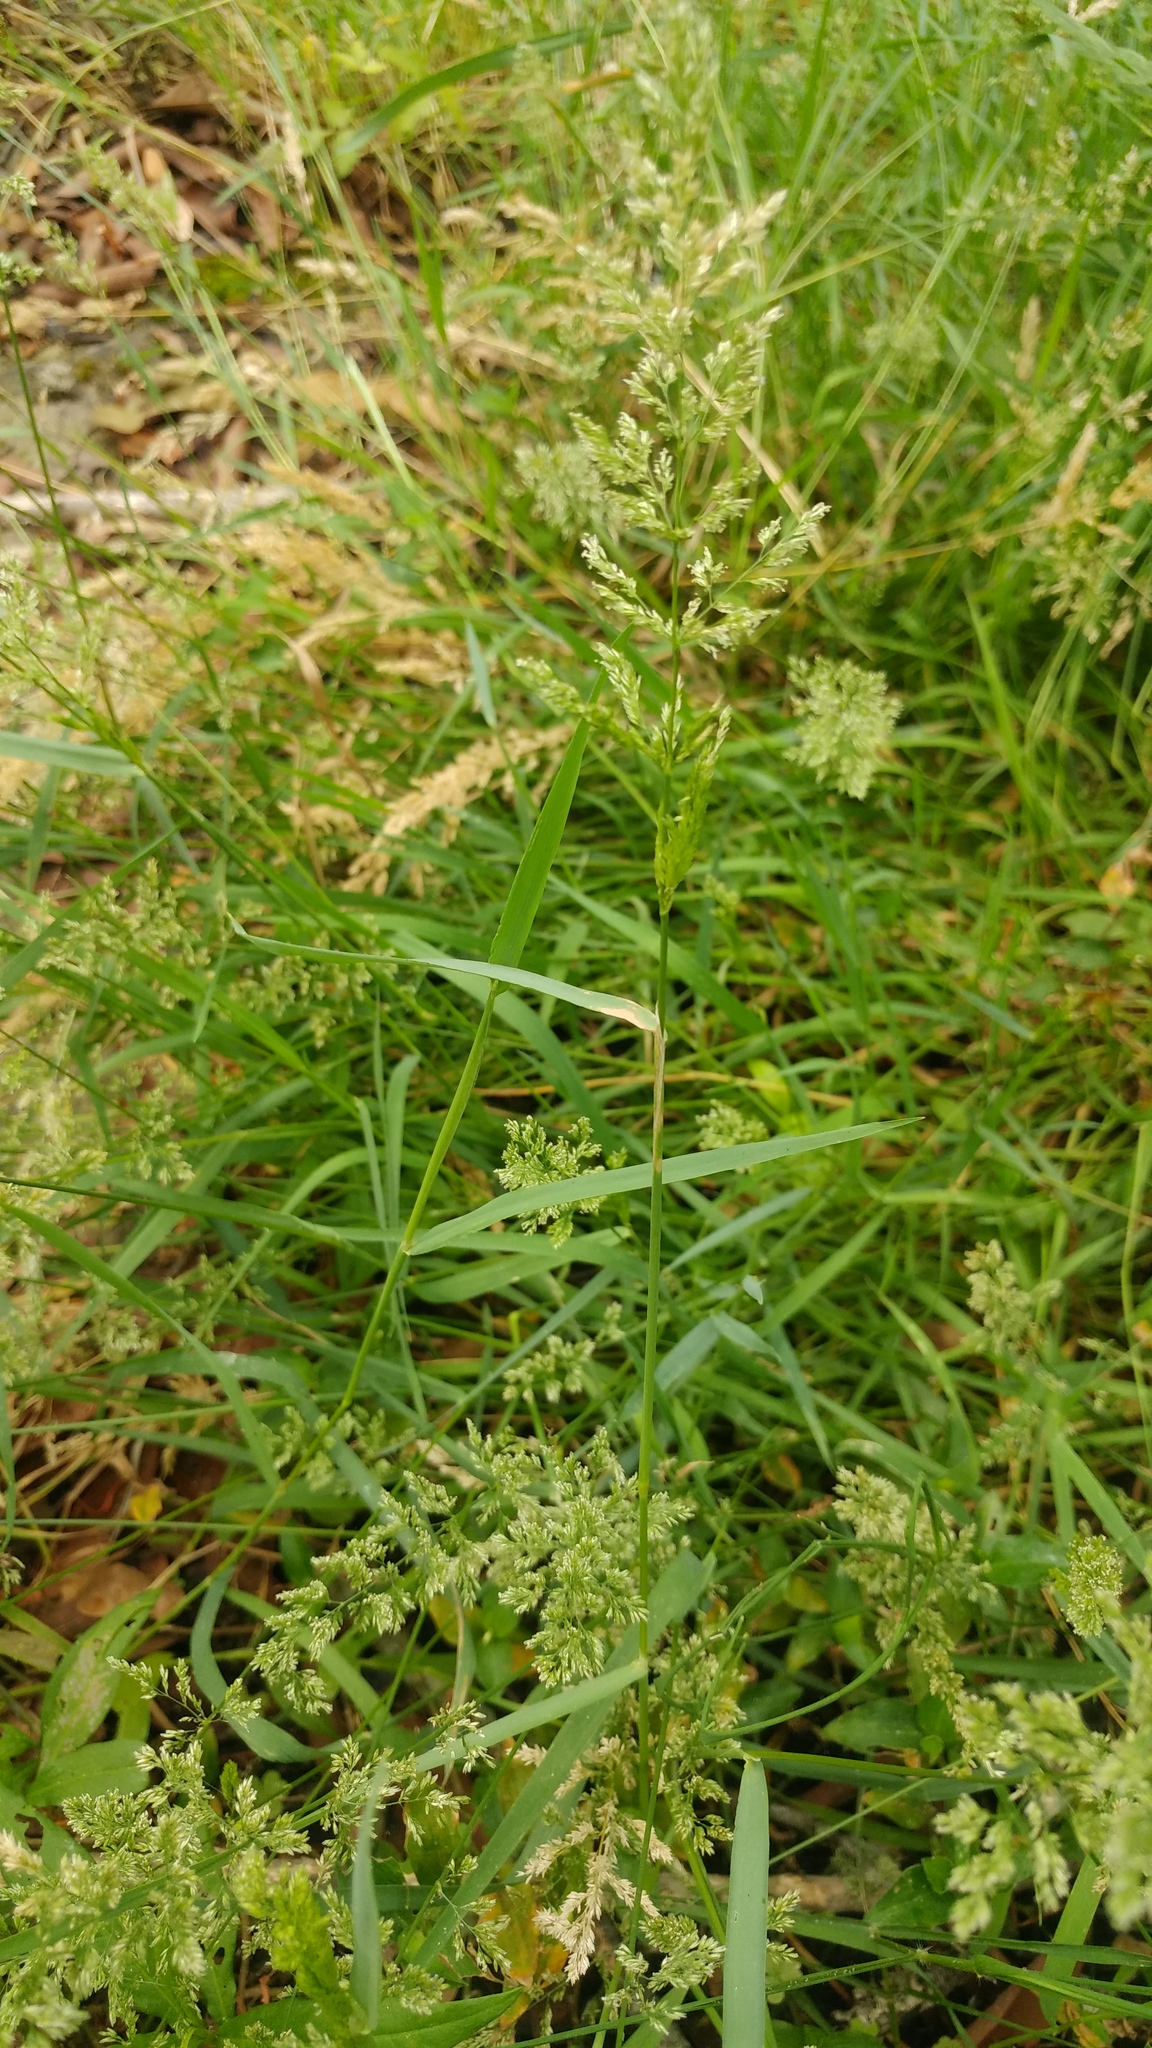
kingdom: Plantae
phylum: Tracheophyta
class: Liliopsida
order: Poales
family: Poaceae
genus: Polypogon
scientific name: Polypogon viridis
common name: Water bent
